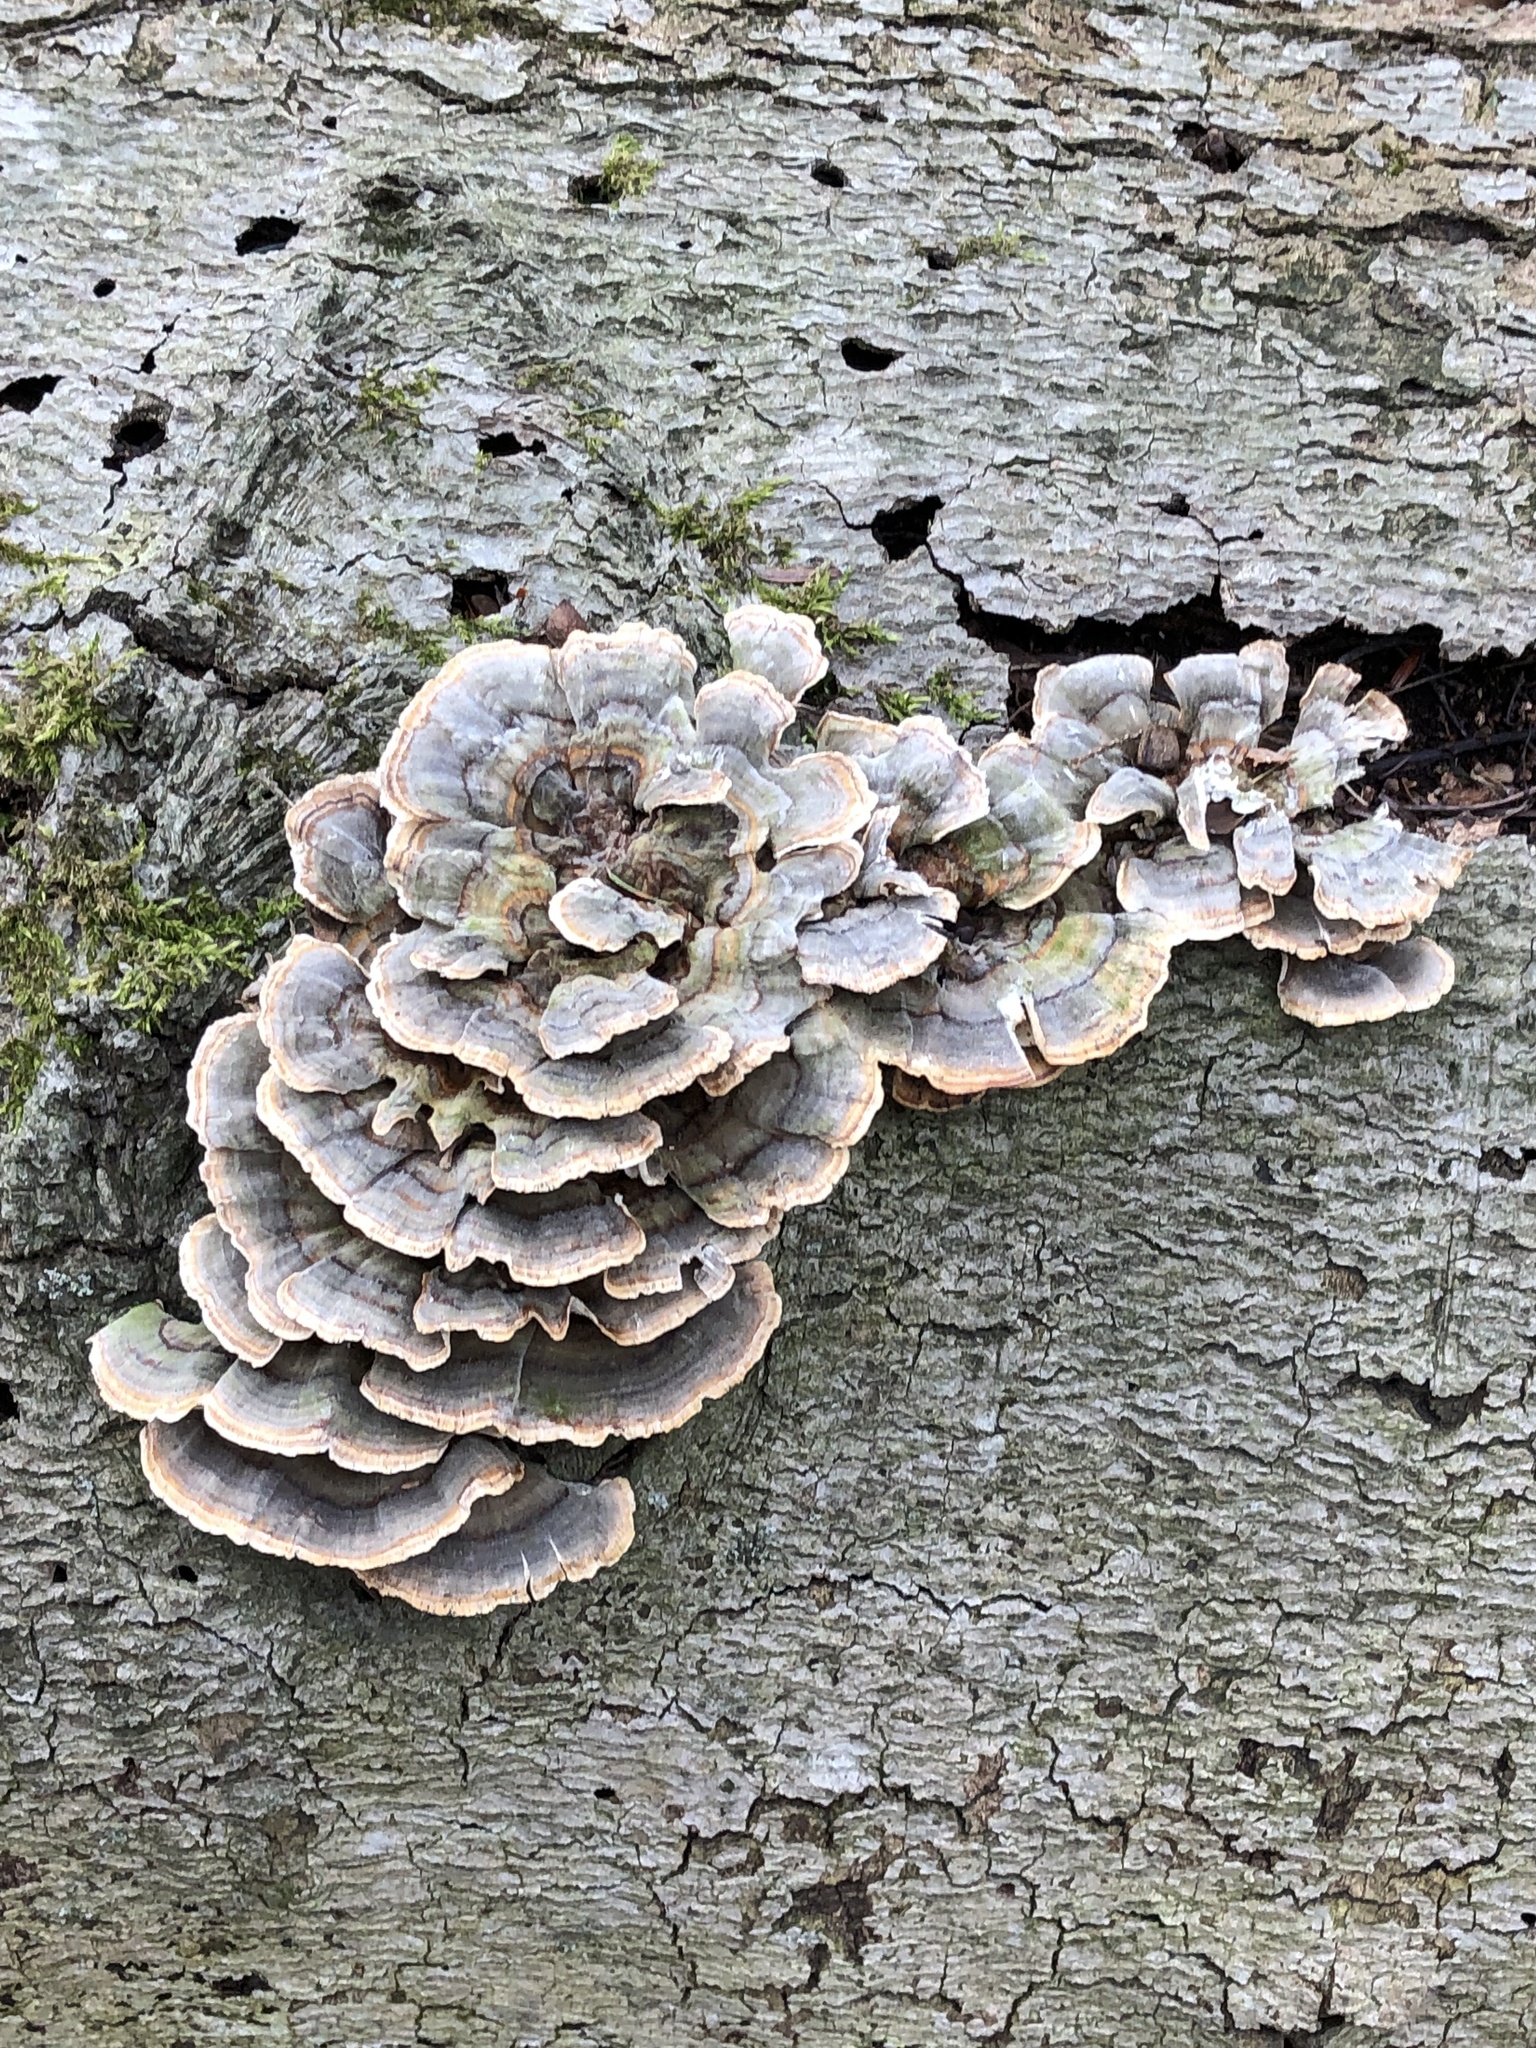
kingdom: Fungi
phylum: Basidiomycota
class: Agaricomycetes
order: Polyporales
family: Polyporaceae
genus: Trametes
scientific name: Trametes versicolor
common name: Turkeytail
